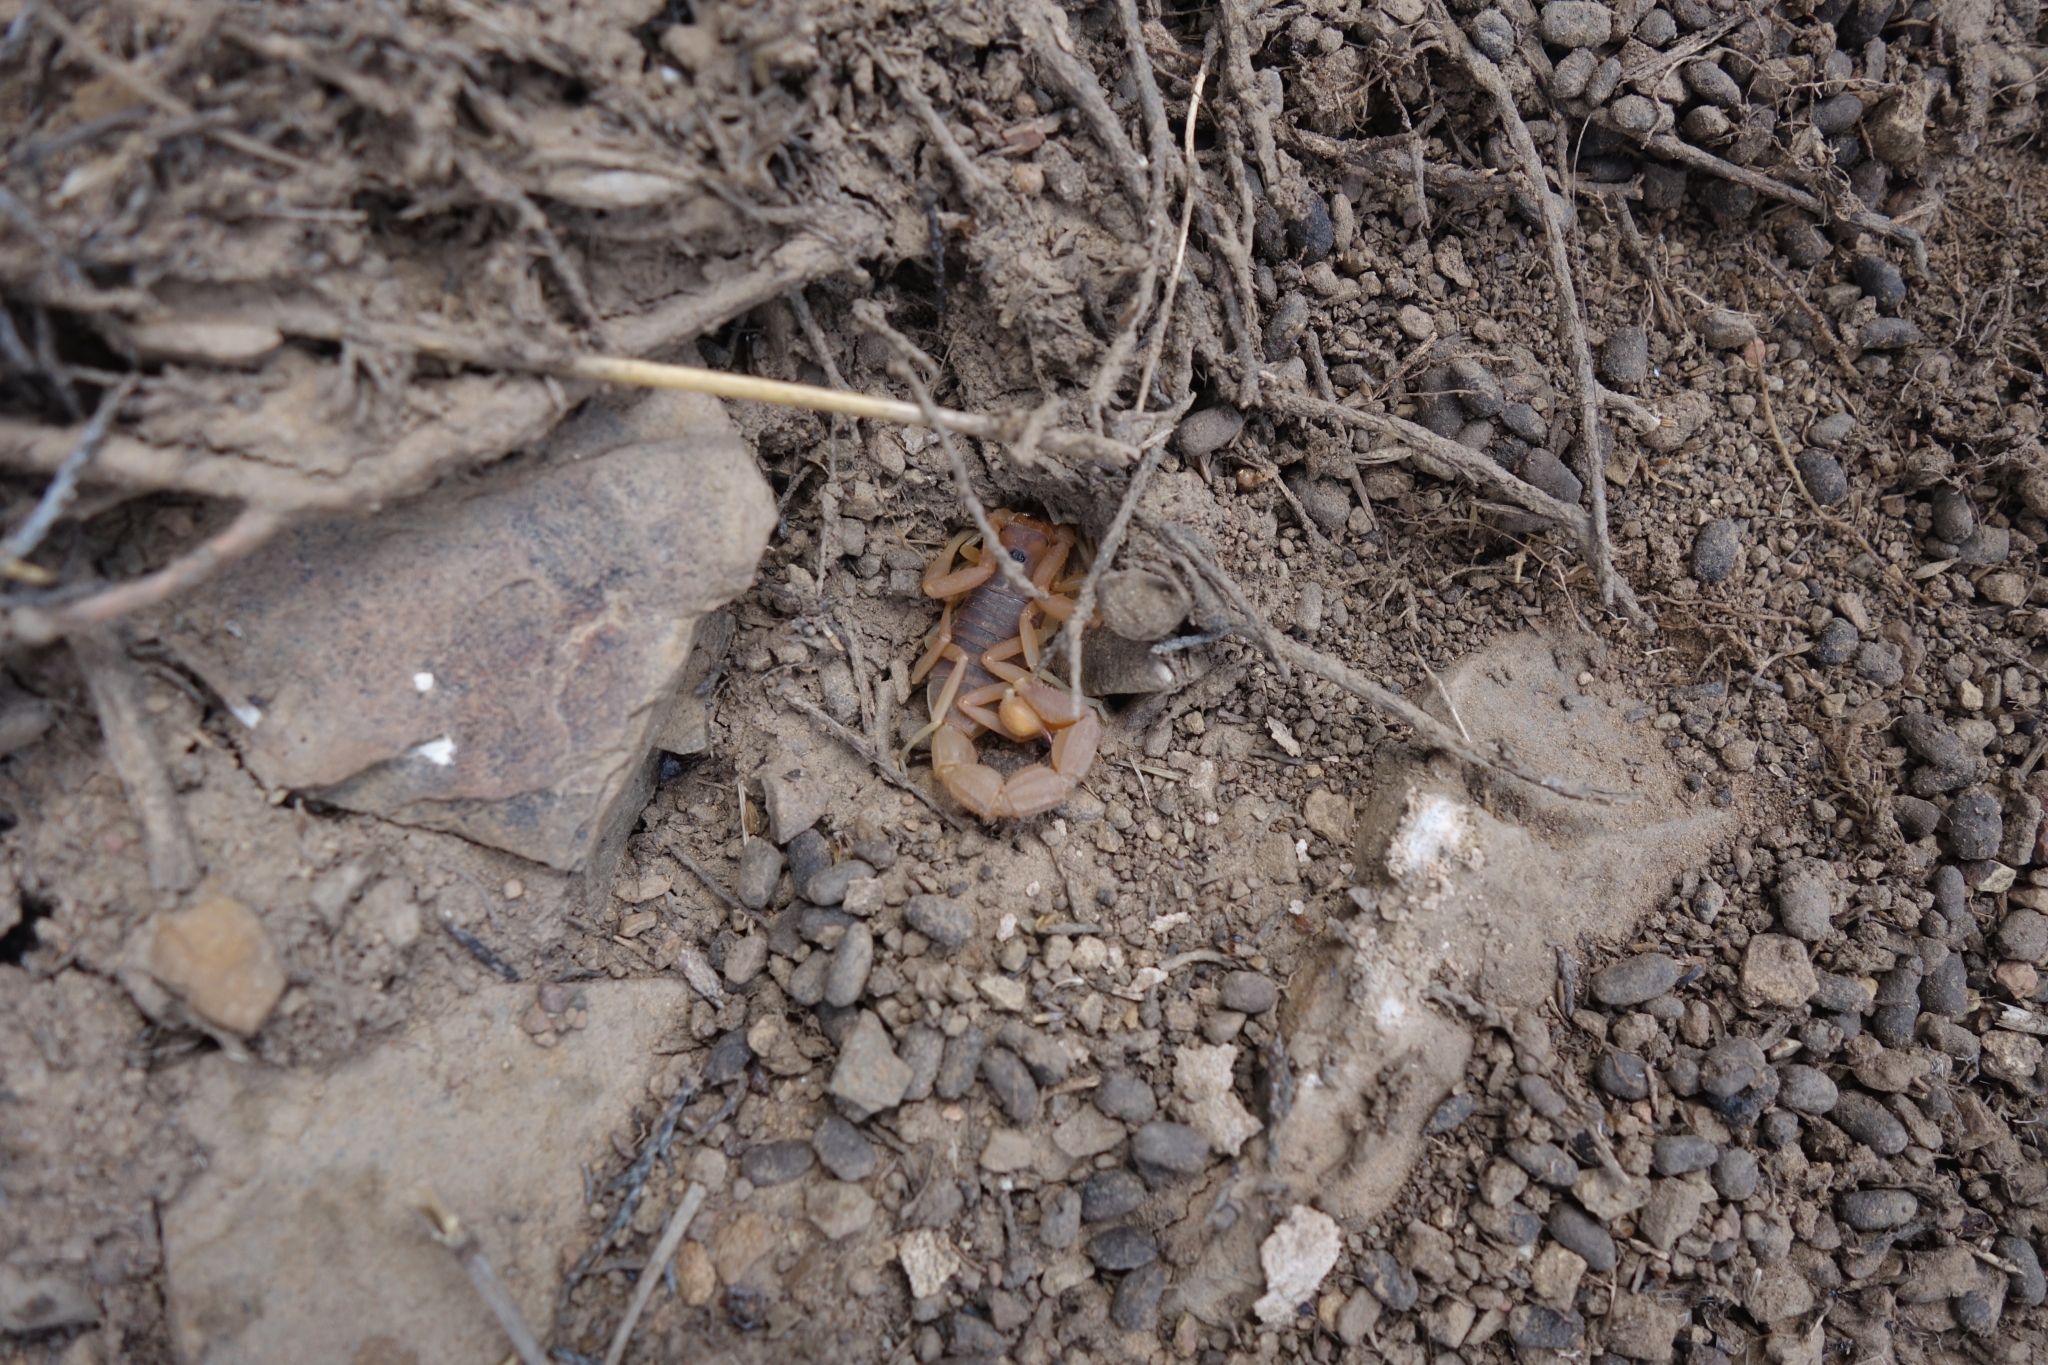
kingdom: Animalia
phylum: Arthropoda
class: Arachnida
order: Scorpiones
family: Buthidae
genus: Parabuthus
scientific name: Parabuthus planicauda
